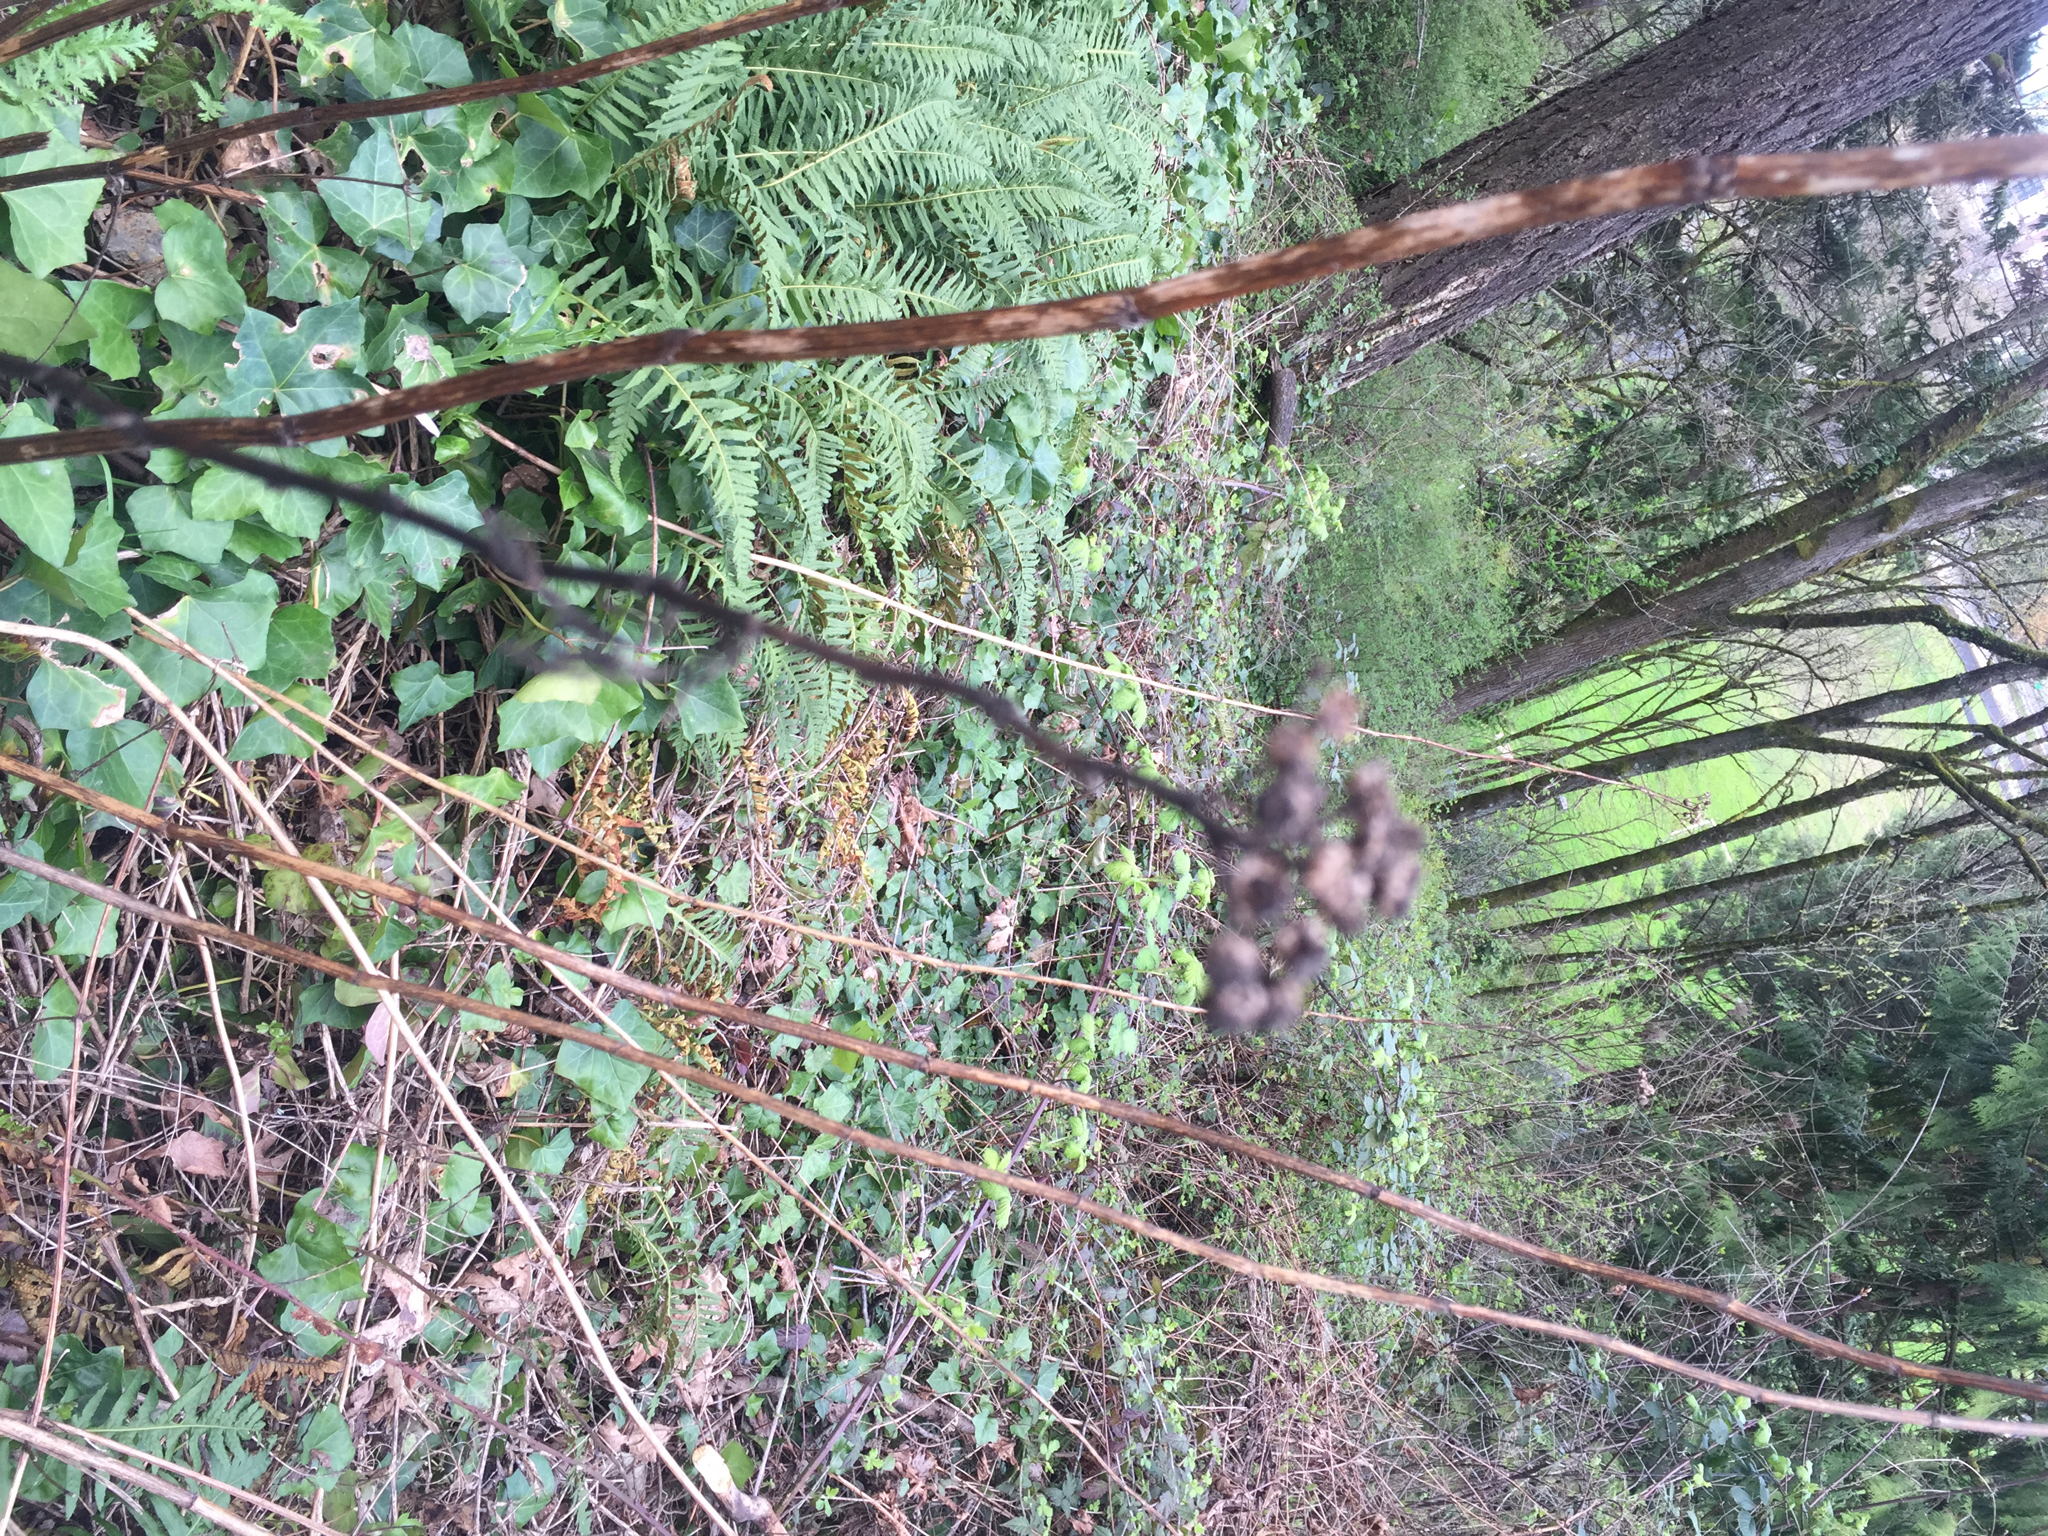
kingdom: Plantae
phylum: Tracheophyta
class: Magnoliopsida
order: Asterales
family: Asteraceae
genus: Tanacetum
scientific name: Tanacetum vulgare
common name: Common tansy
